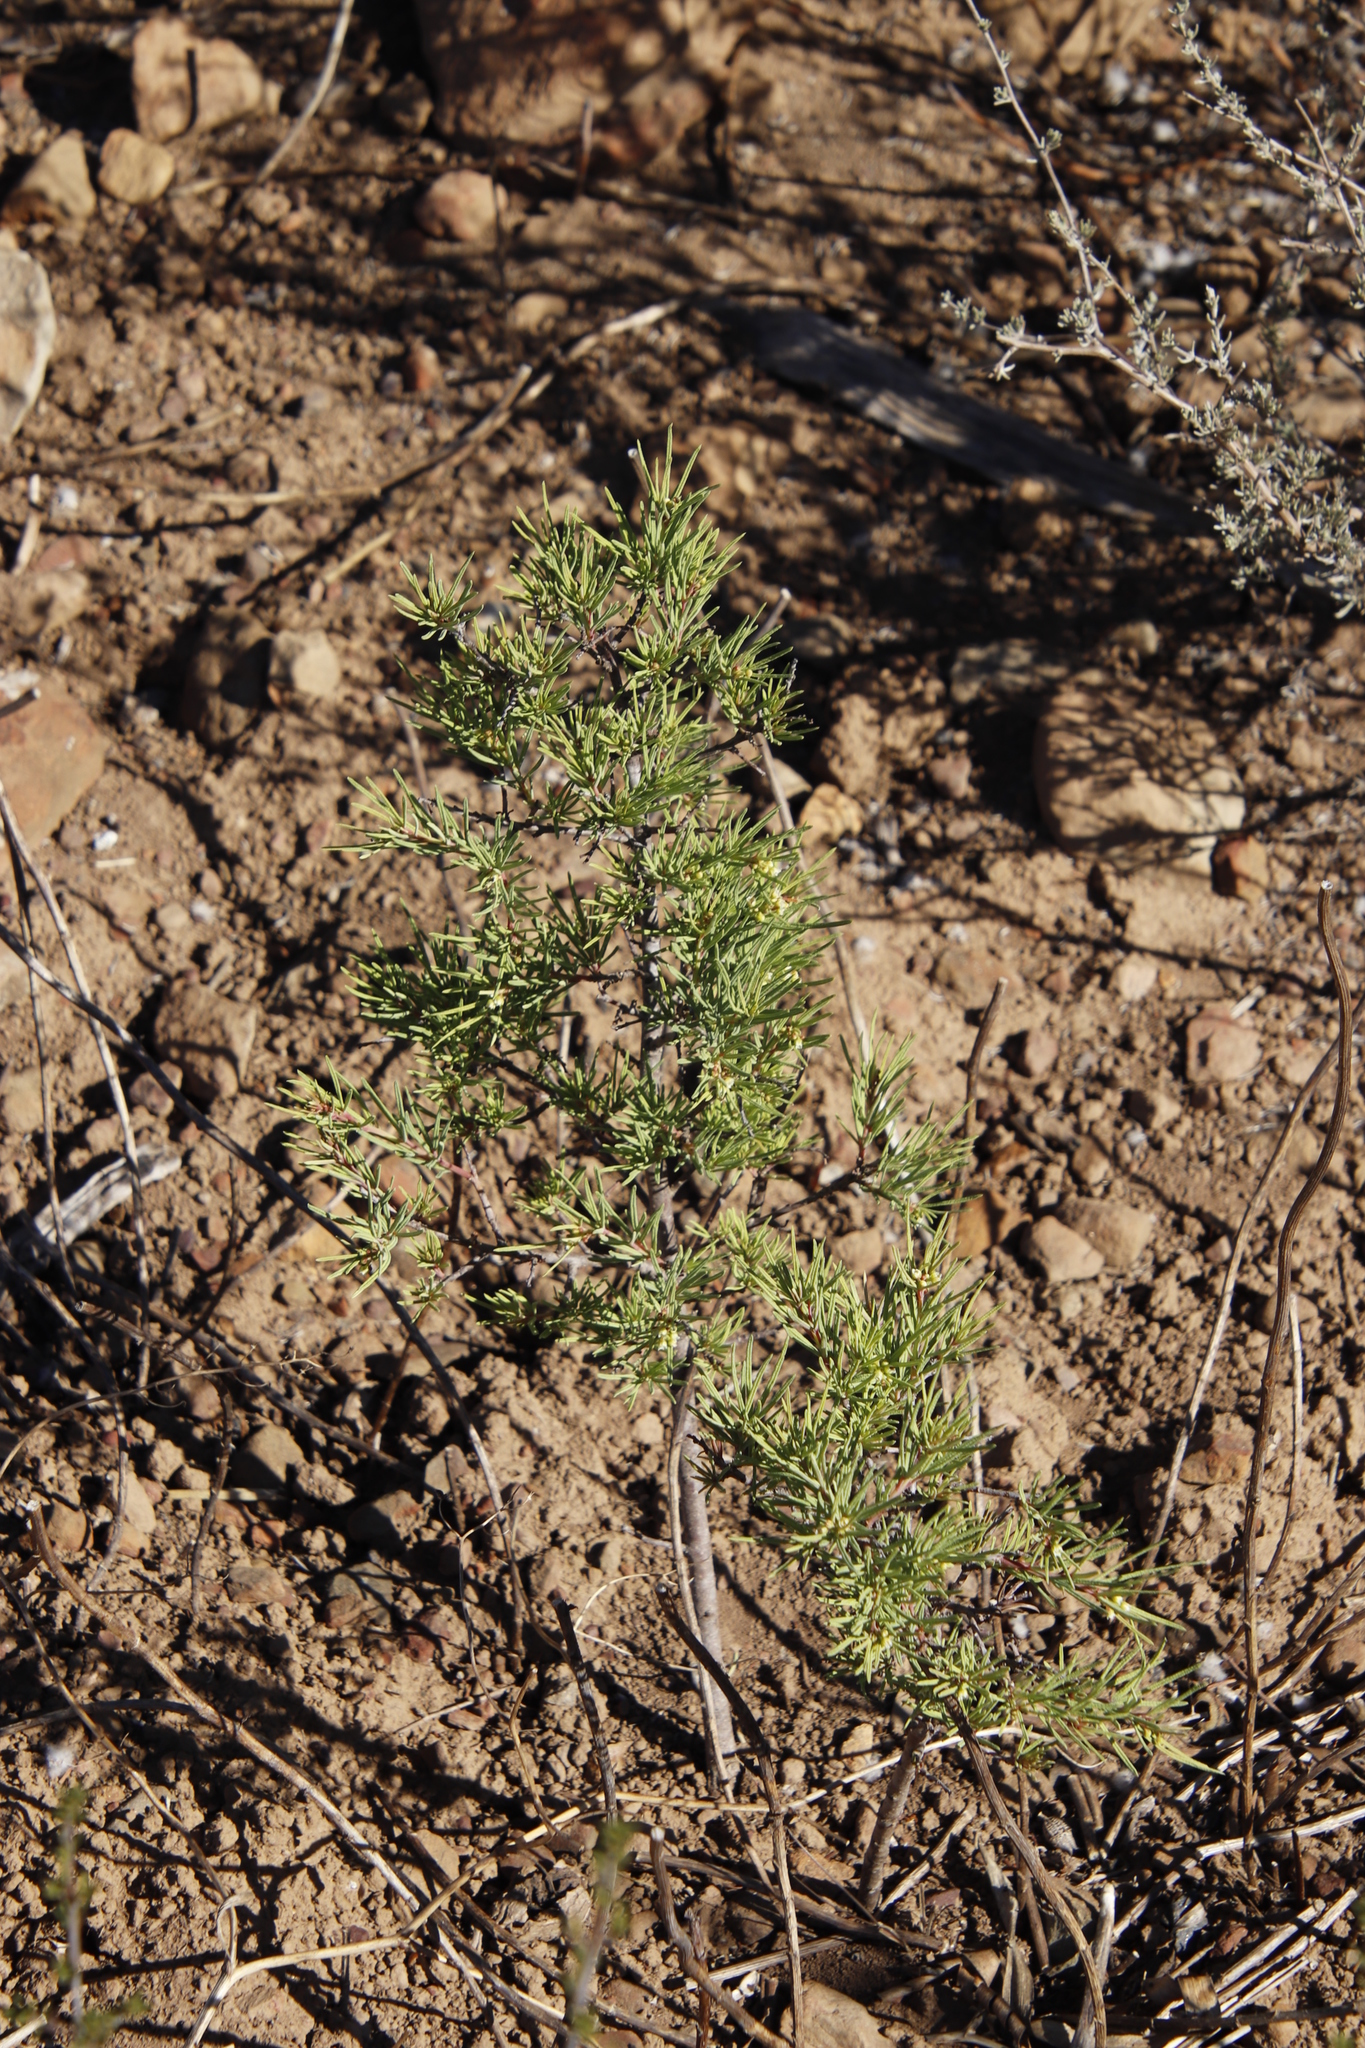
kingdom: Plantae
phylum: Tracheophyta
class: Magnoliopsida
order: Sapindales
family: Anacardiaceae
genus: Searsia
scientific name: Searsia rosmarinifolia
